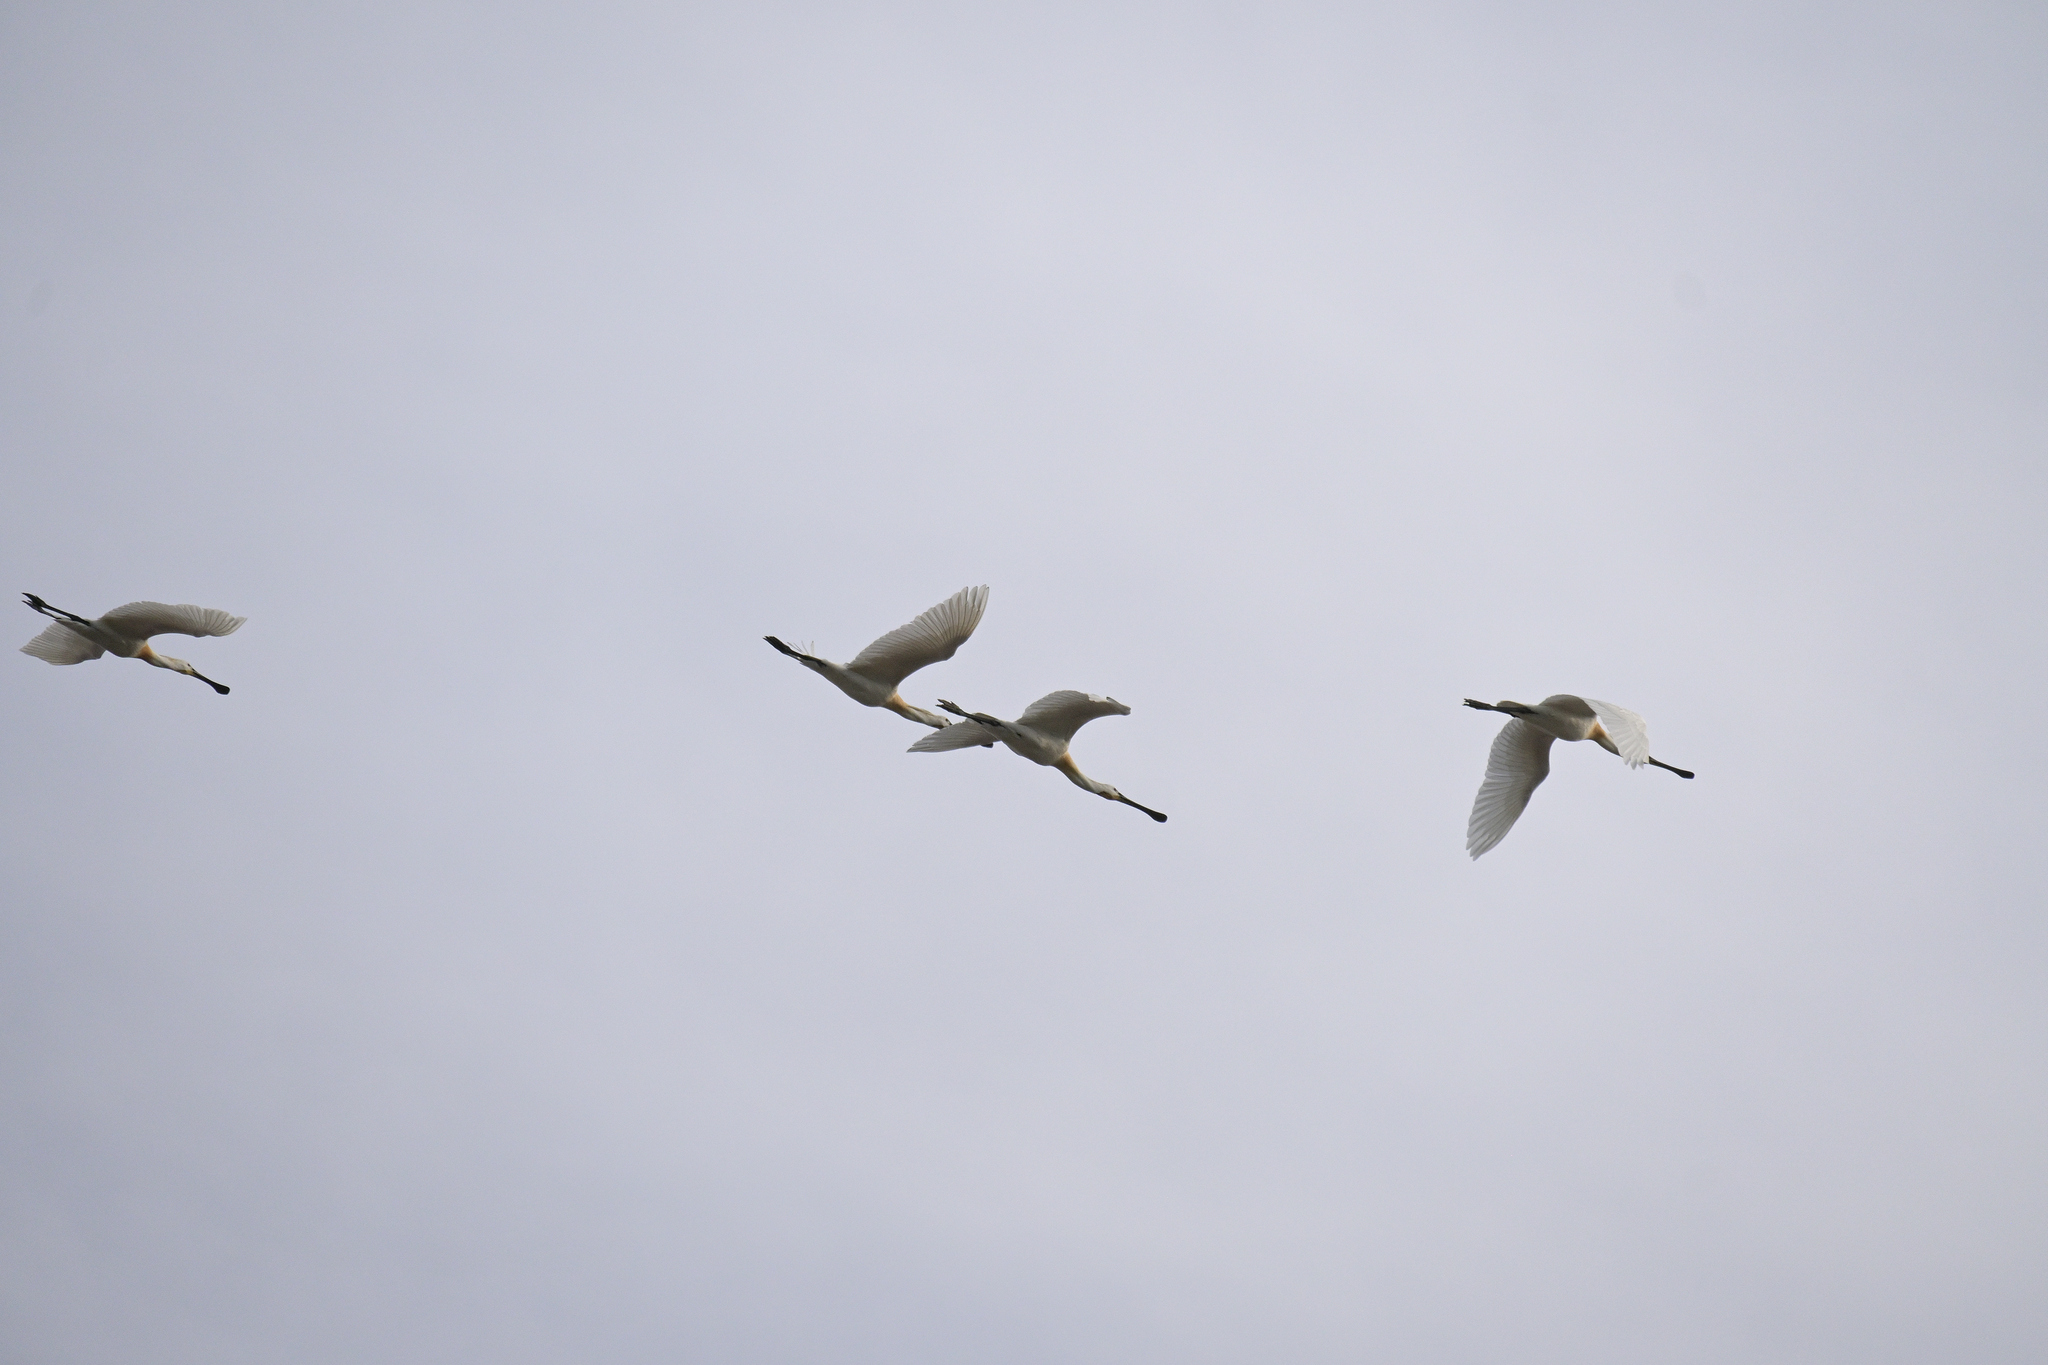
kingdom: Animalia
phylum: Chordata
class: Aves
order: Pelecaniformes
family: Threskiornithidae
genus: Platalea
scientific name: Platalea leucorodia
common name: Eurasian spoonbill
